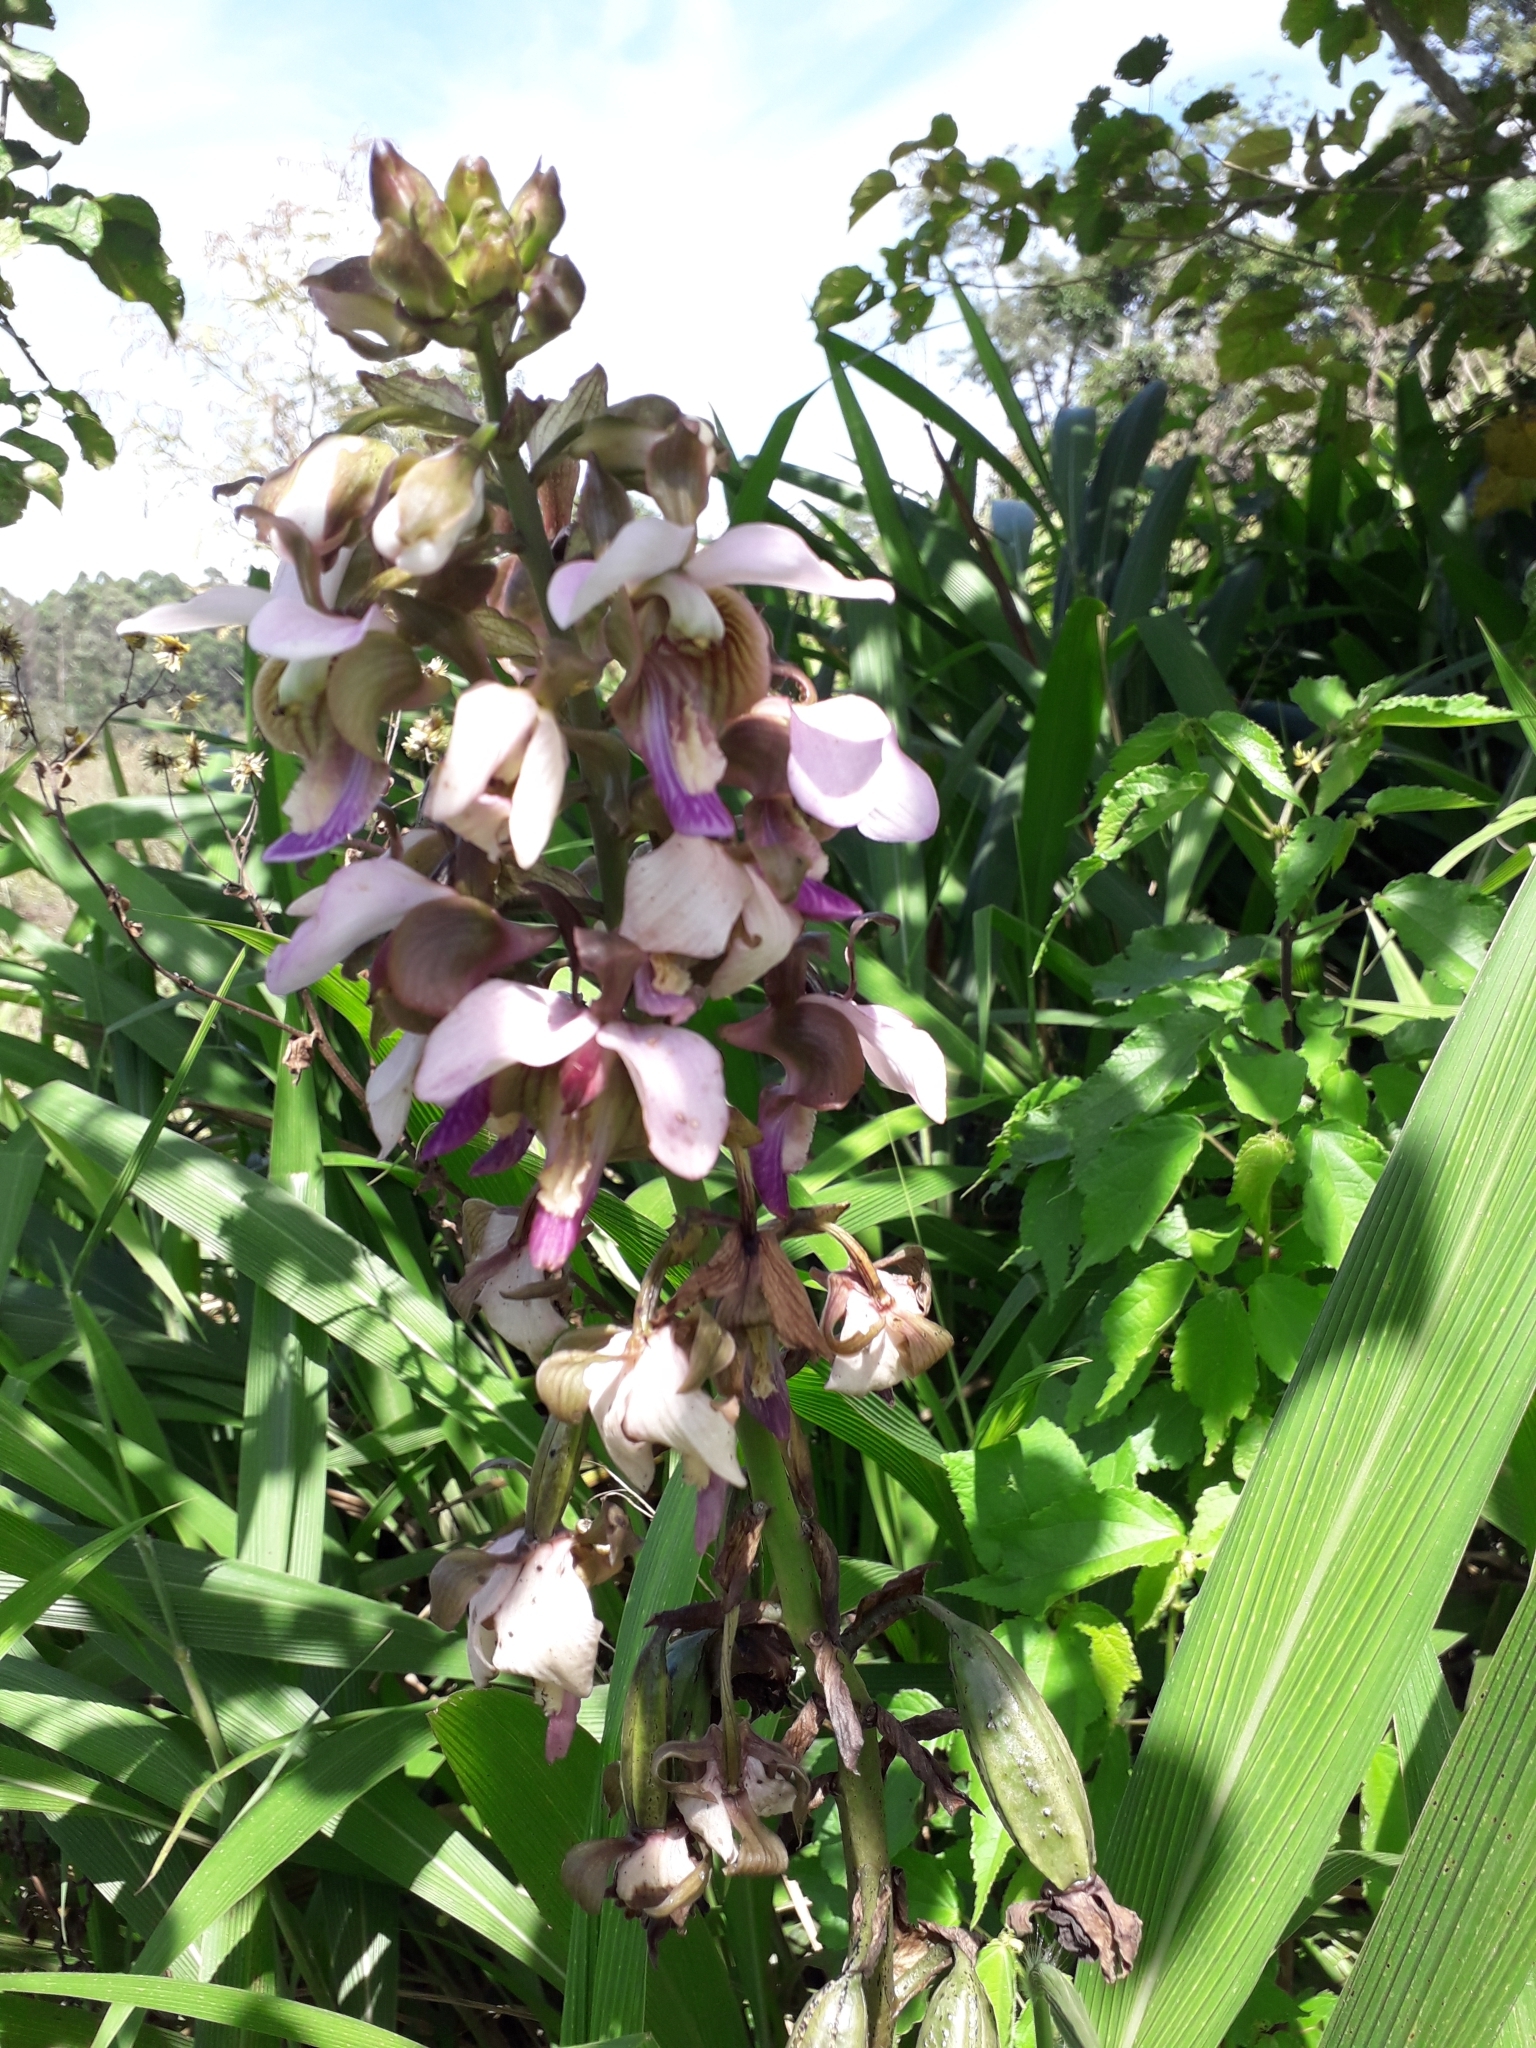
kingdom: Plantae
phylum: Tracheophyta
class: Liliopsida
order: Asparagales
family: Orchidaceae
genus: Eulophia
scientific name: Eulophia horsfallii
